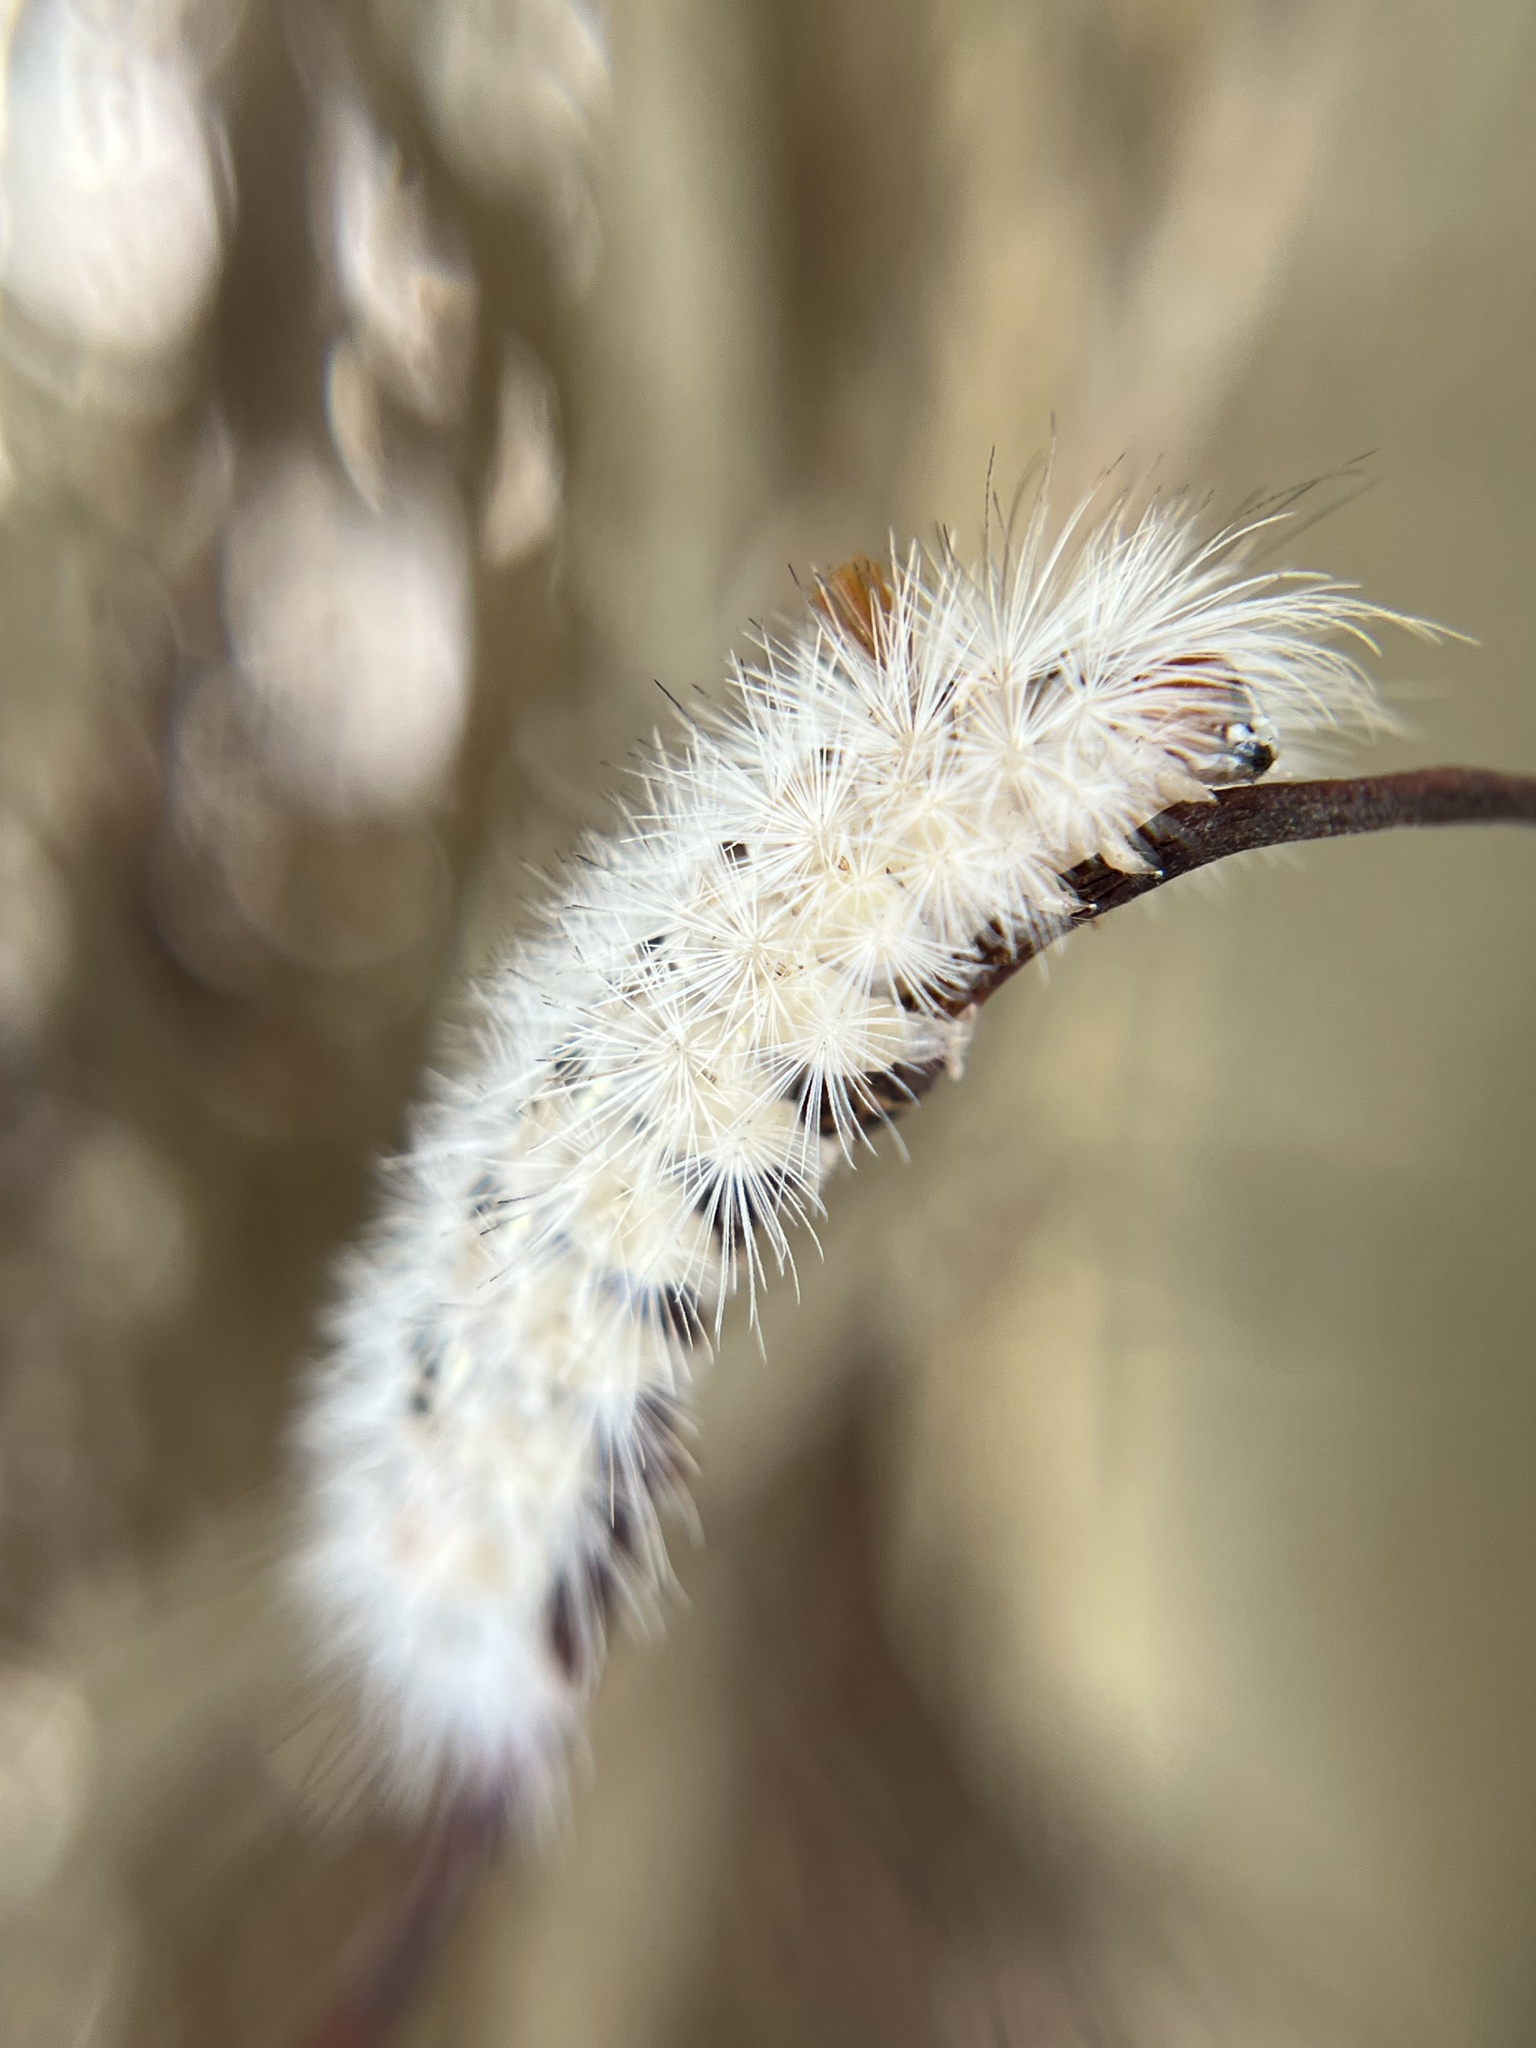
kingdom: Animalia
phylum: Arthropoda
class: Insecta
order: Lepidoptera
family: Erebidae
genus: Lymire
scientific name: Lymire edwardsii
